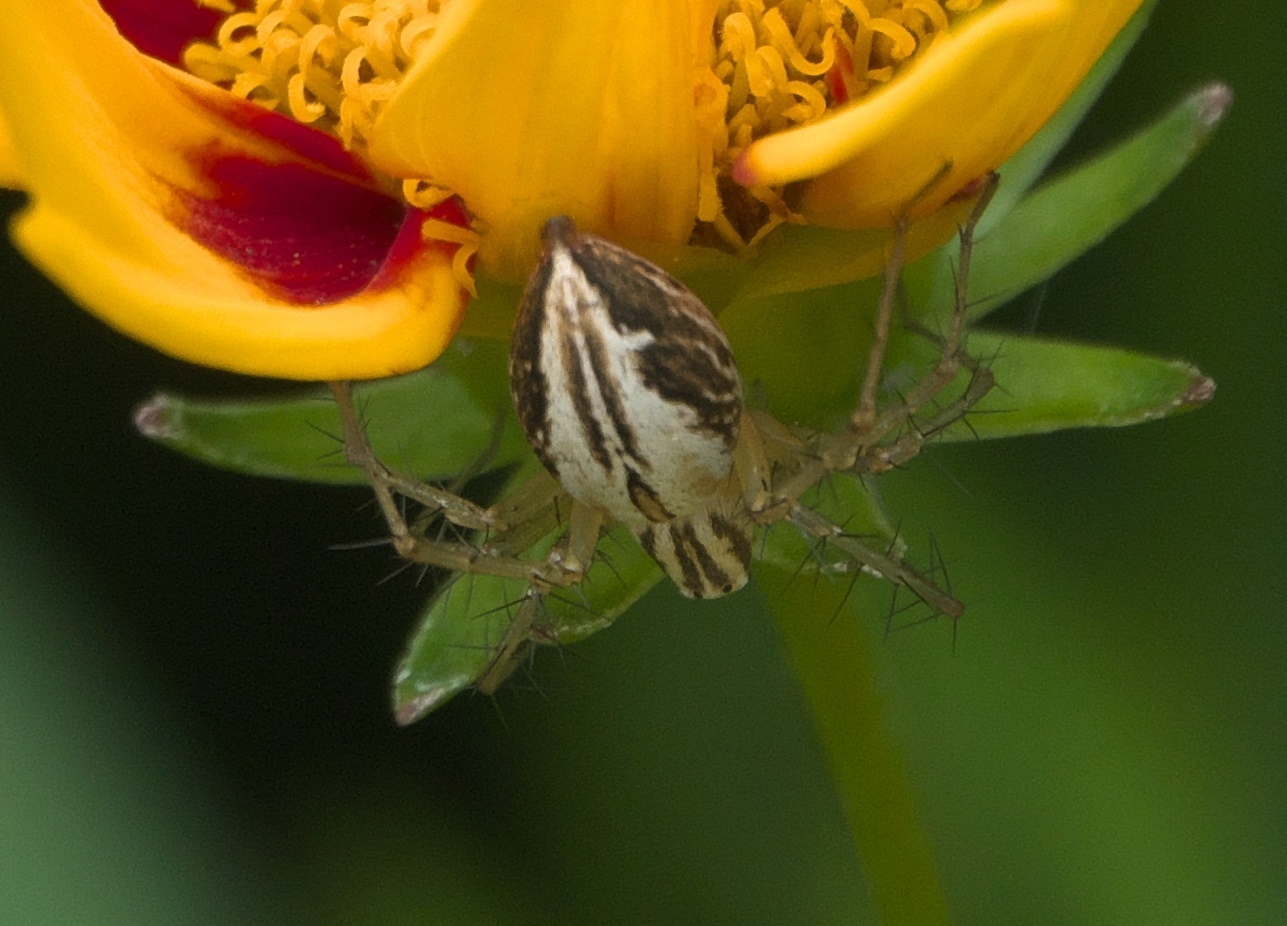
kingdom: Animalia
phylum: Arthropoda
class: Arachnida
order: Araneae
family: Oxyopidae
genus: Oxyopes
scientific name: Oxyopes salticus
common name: Lynx spiders
